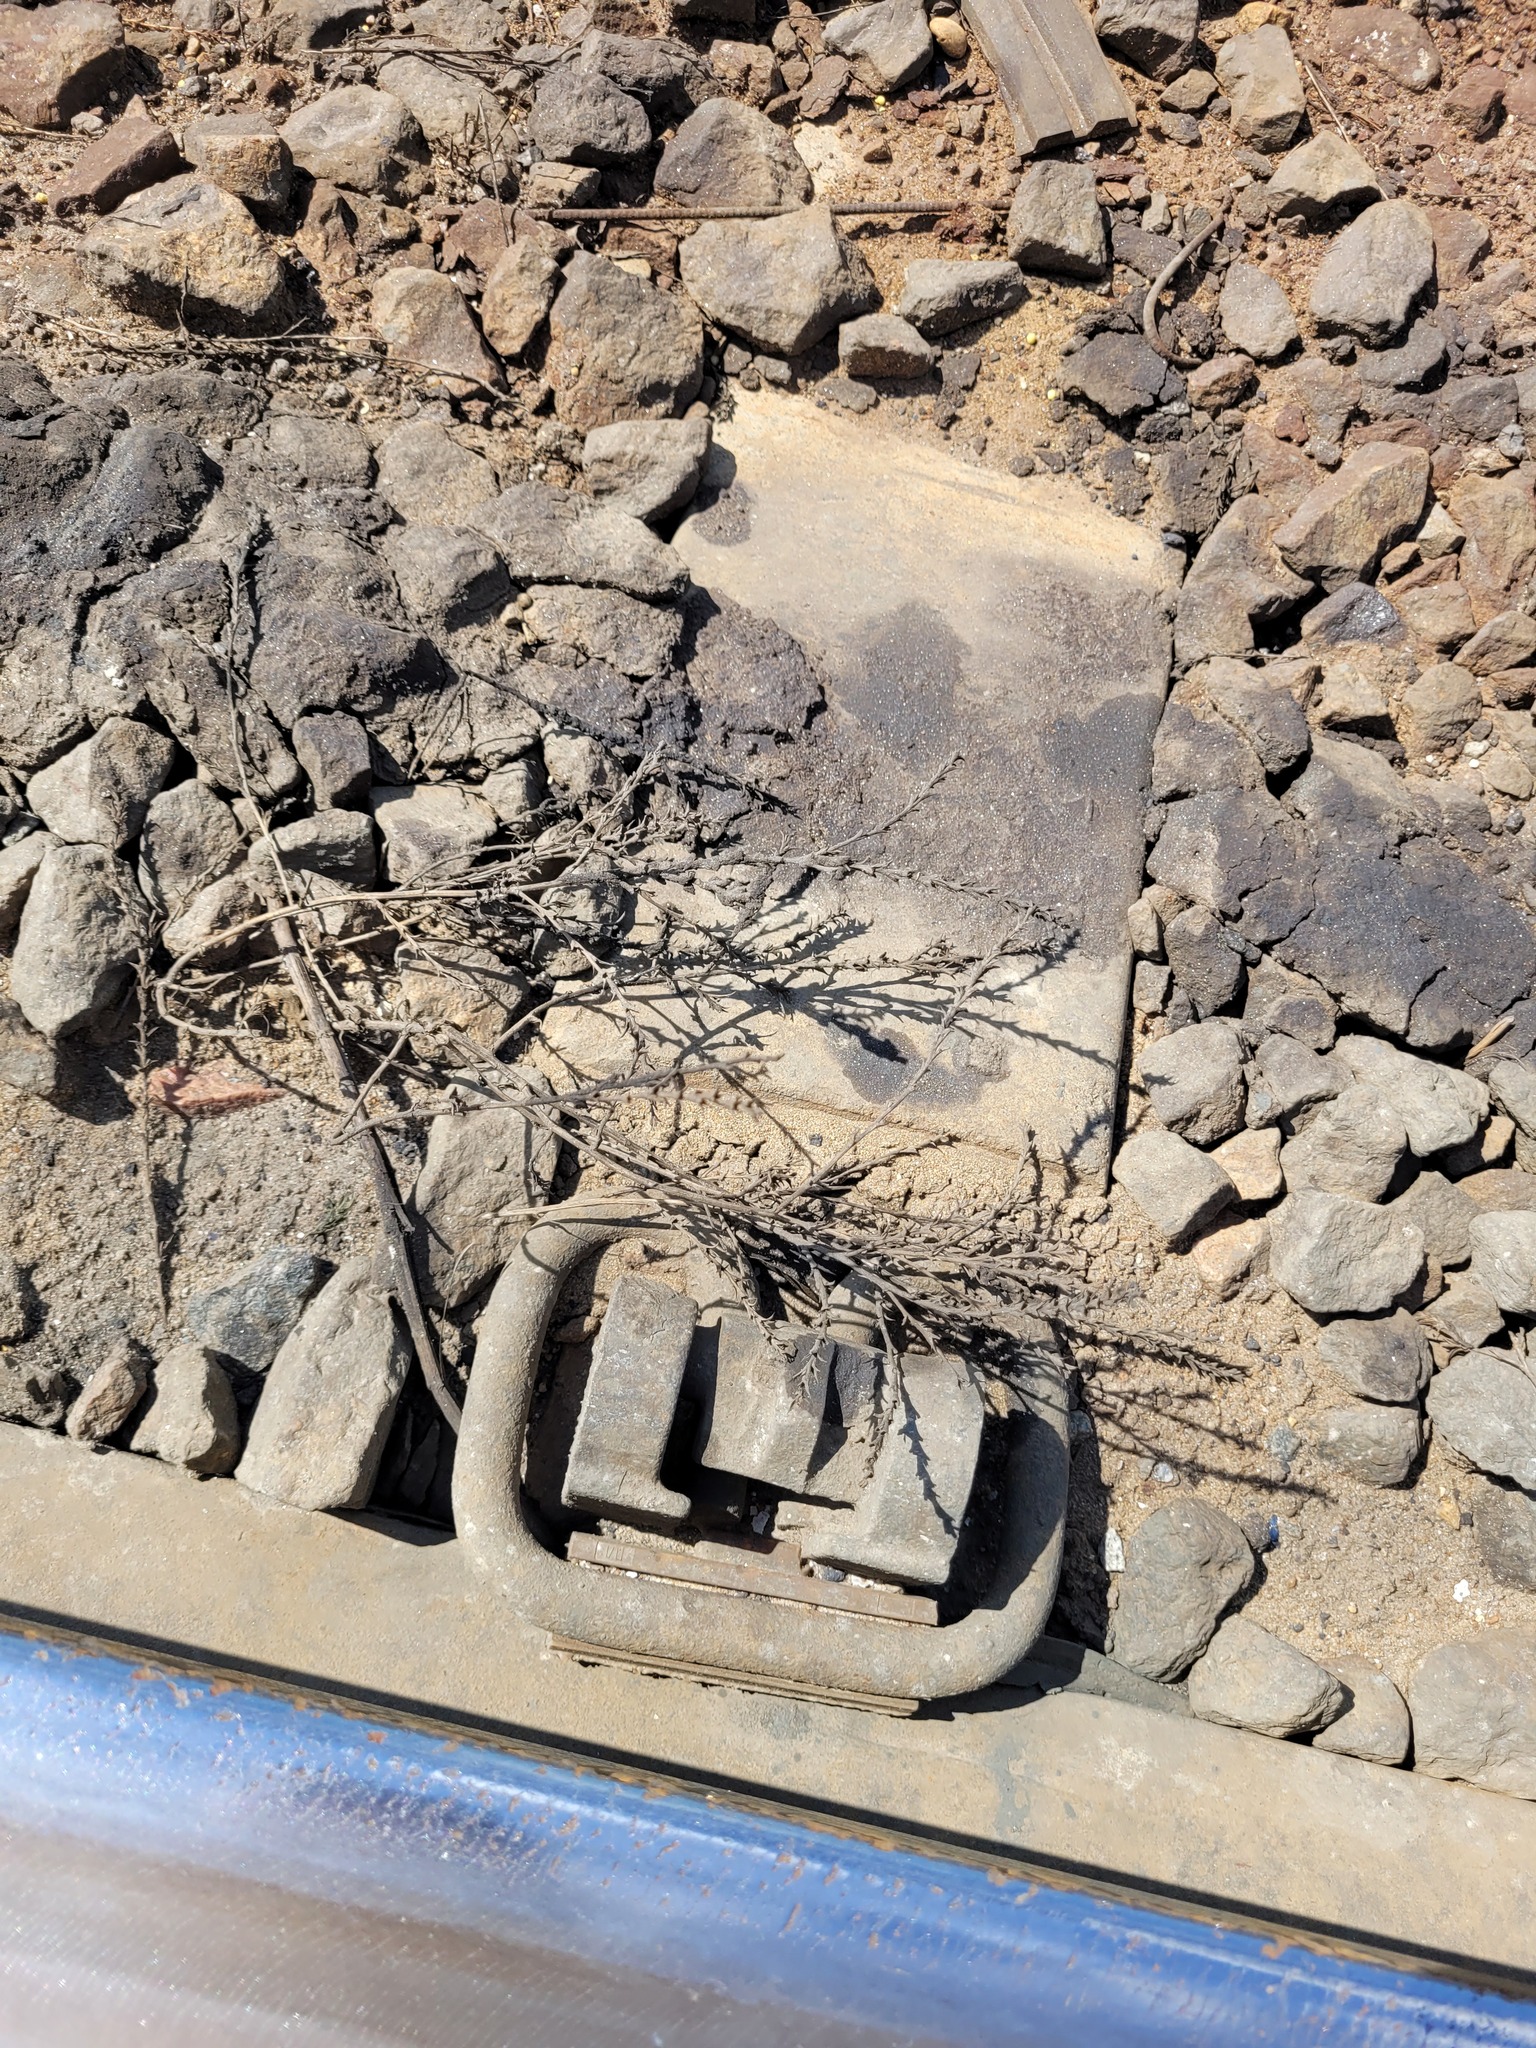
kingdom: Plantae
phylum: Tracheophyta
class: Magnoliopsida
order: Caryophyllales
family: Amaranthaceae
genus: Salsola
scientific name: Salsola collina
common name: Tumbleweed
